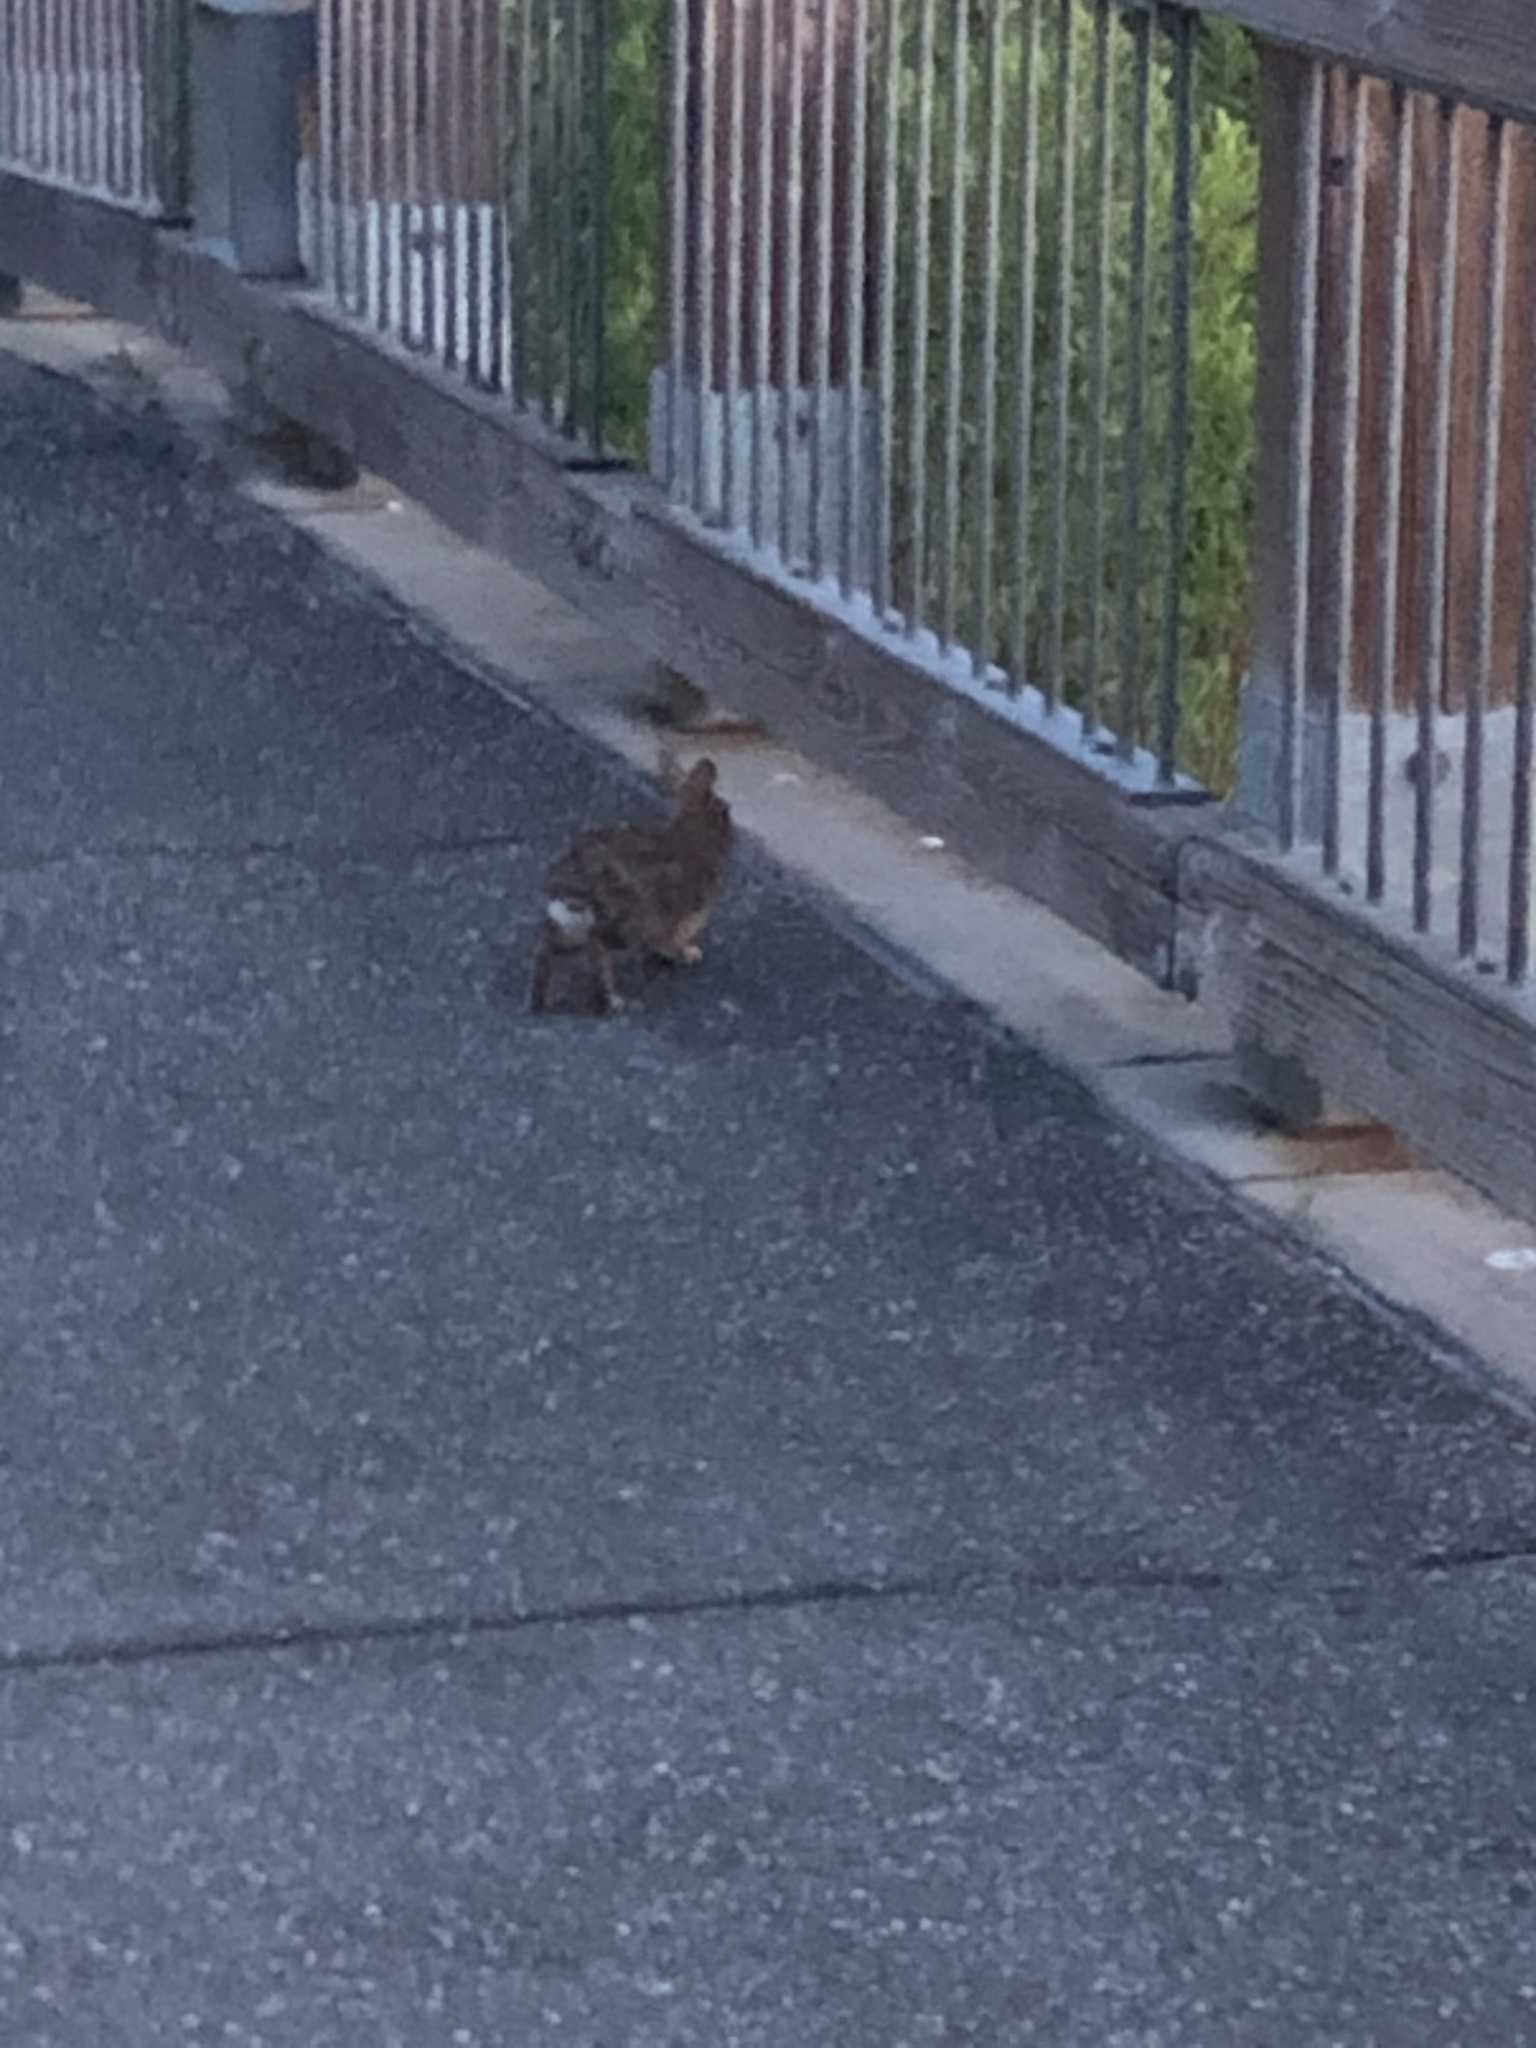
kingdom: Animalia
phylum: Chordata
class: Mammalia
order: Lagomorpha
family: Leporidae
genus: Sylvilagus
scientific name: Sylvilagus floridanus
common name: Eastern cottontail
